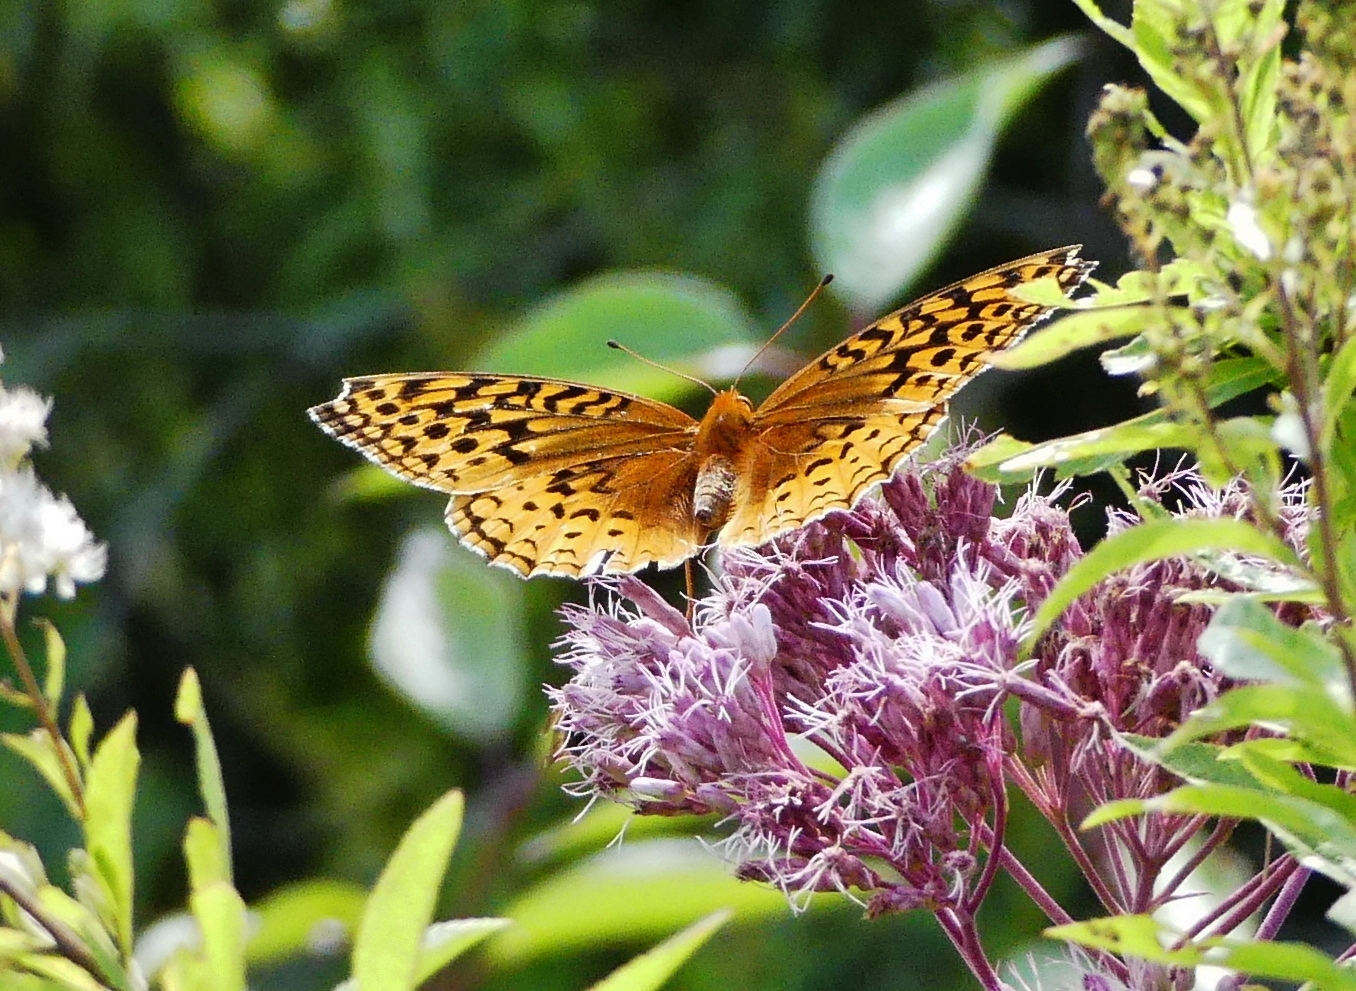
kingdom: Animalia
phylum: Arthropoda
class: Insecta
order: Lepidoptera
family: Nymphalidae
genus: Speyeria
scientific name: Speyeria cybele
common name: Great spangled fritillary
